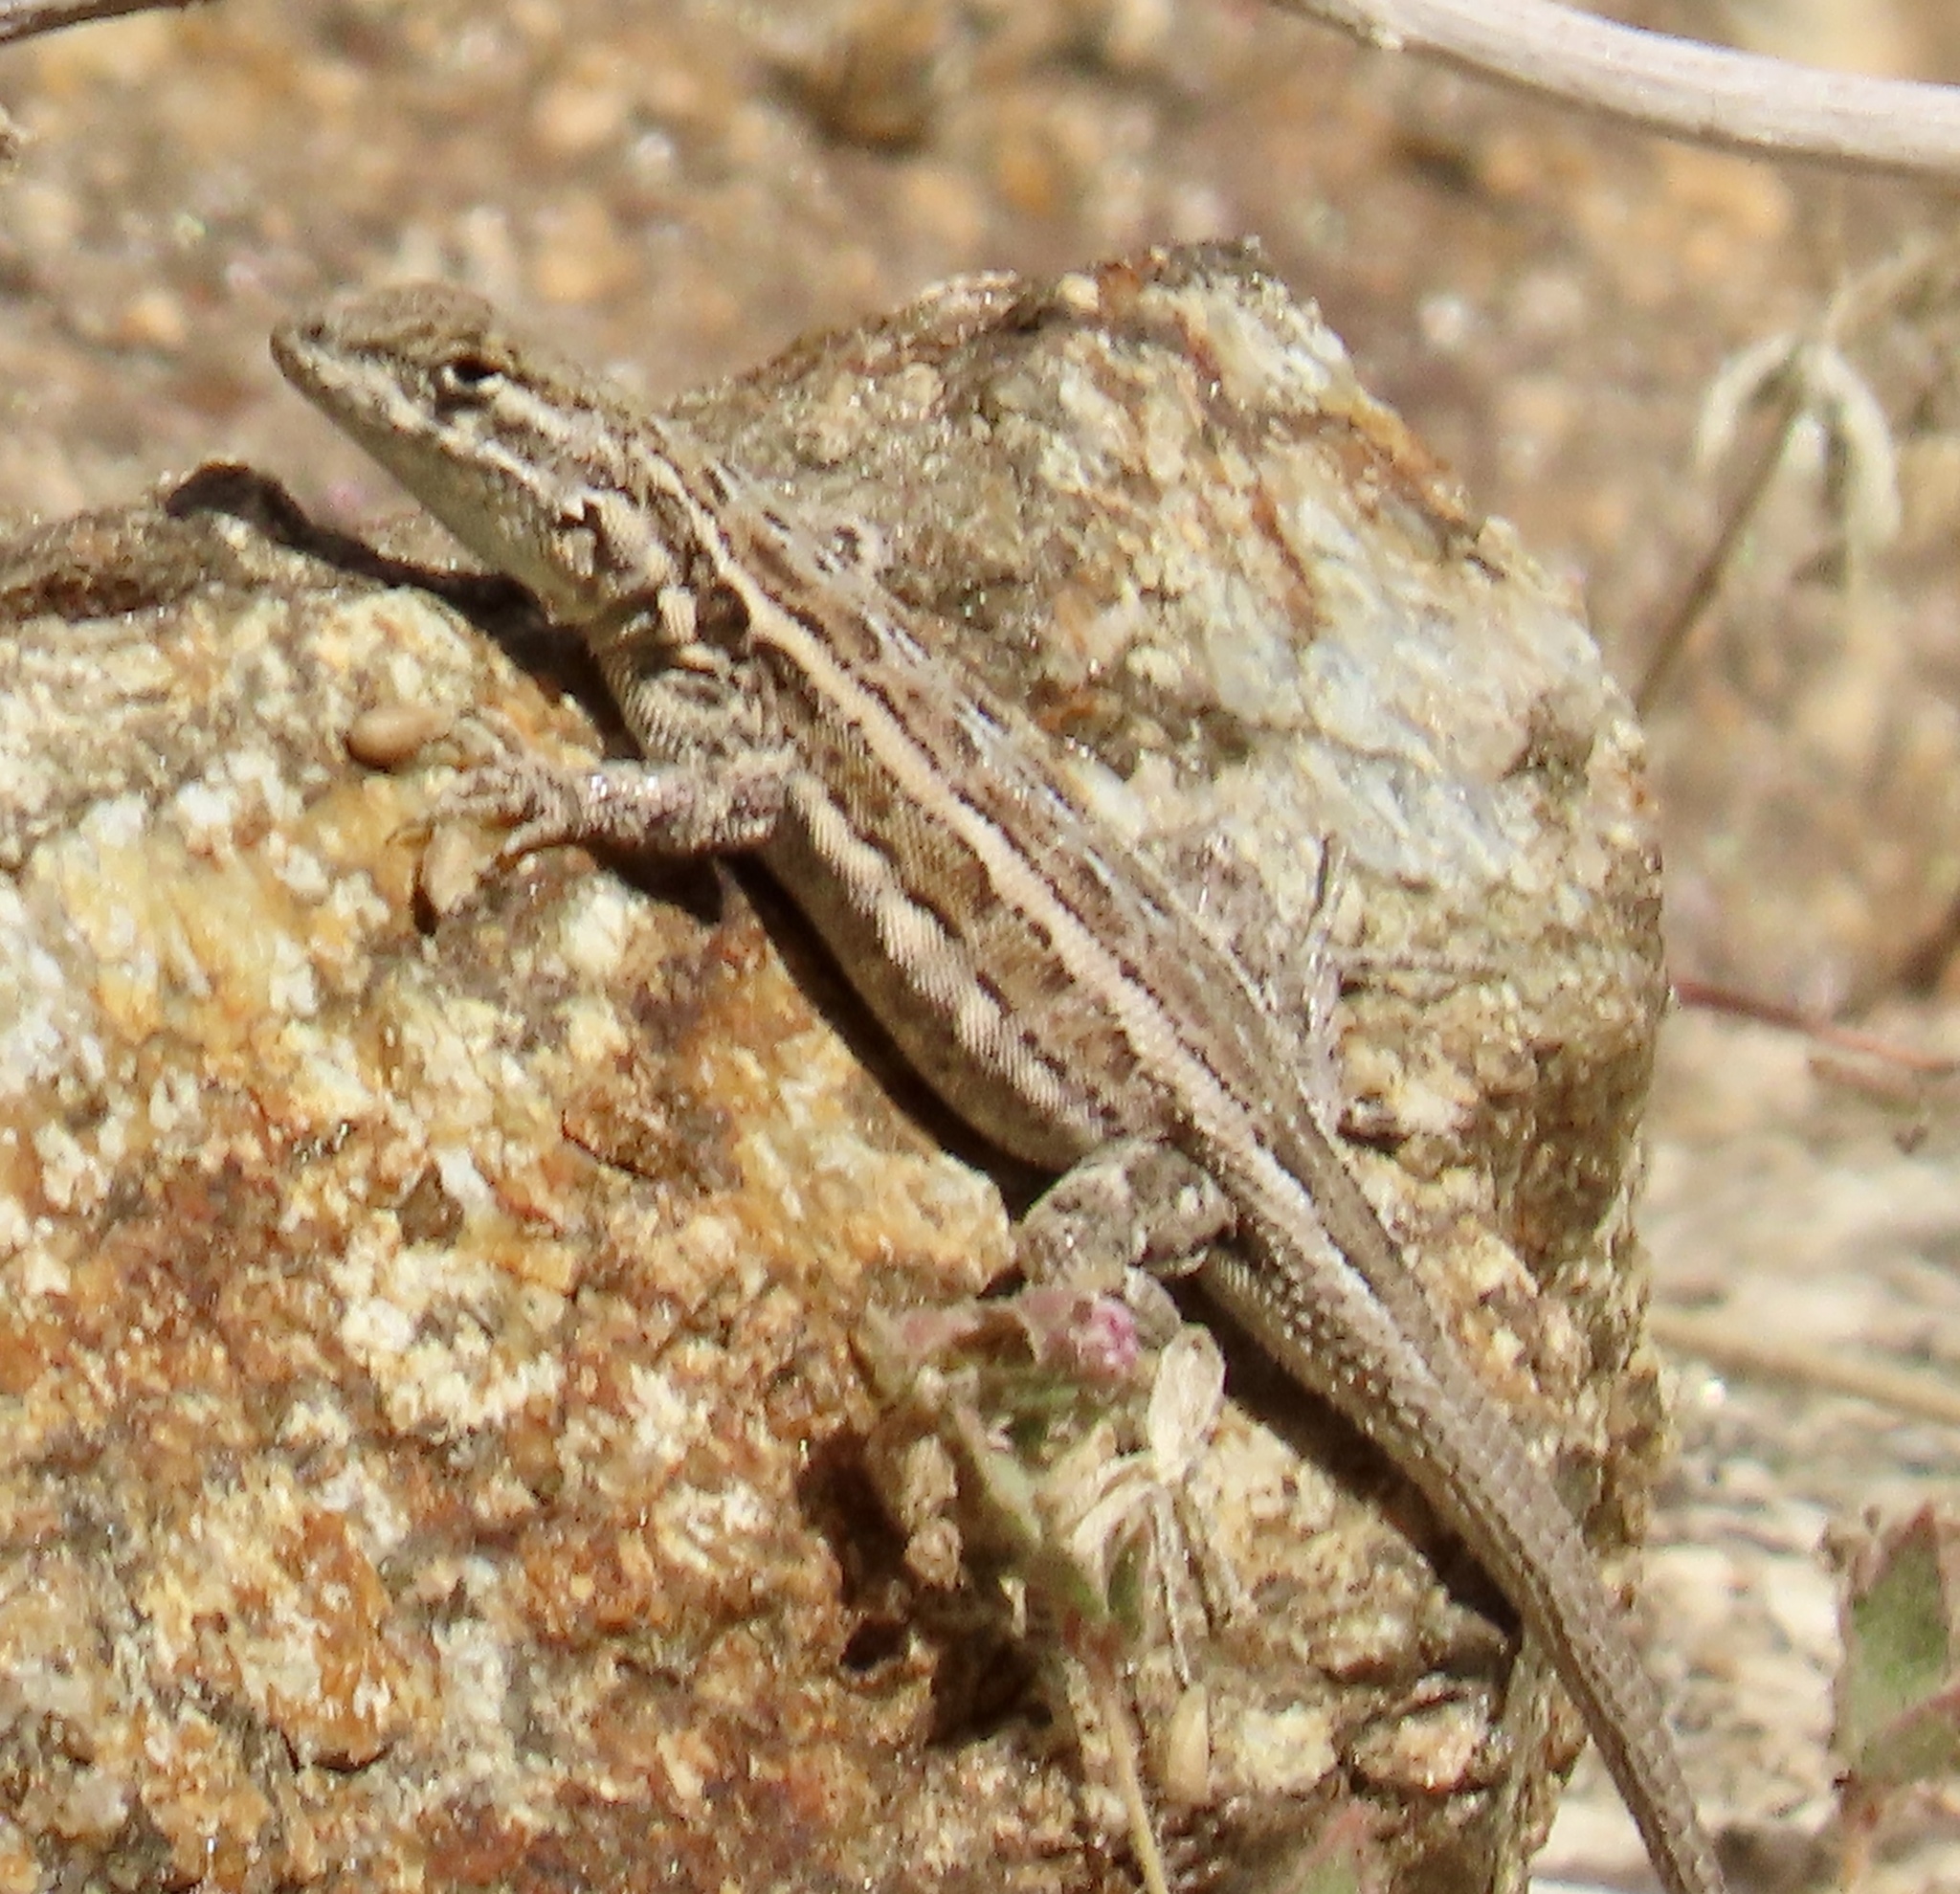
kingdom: Animalia
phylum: Chordata
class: Squamata
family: Phrynosomatidae
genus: Uta
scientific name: Uta stansburiana
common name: Side-blotched lizard
